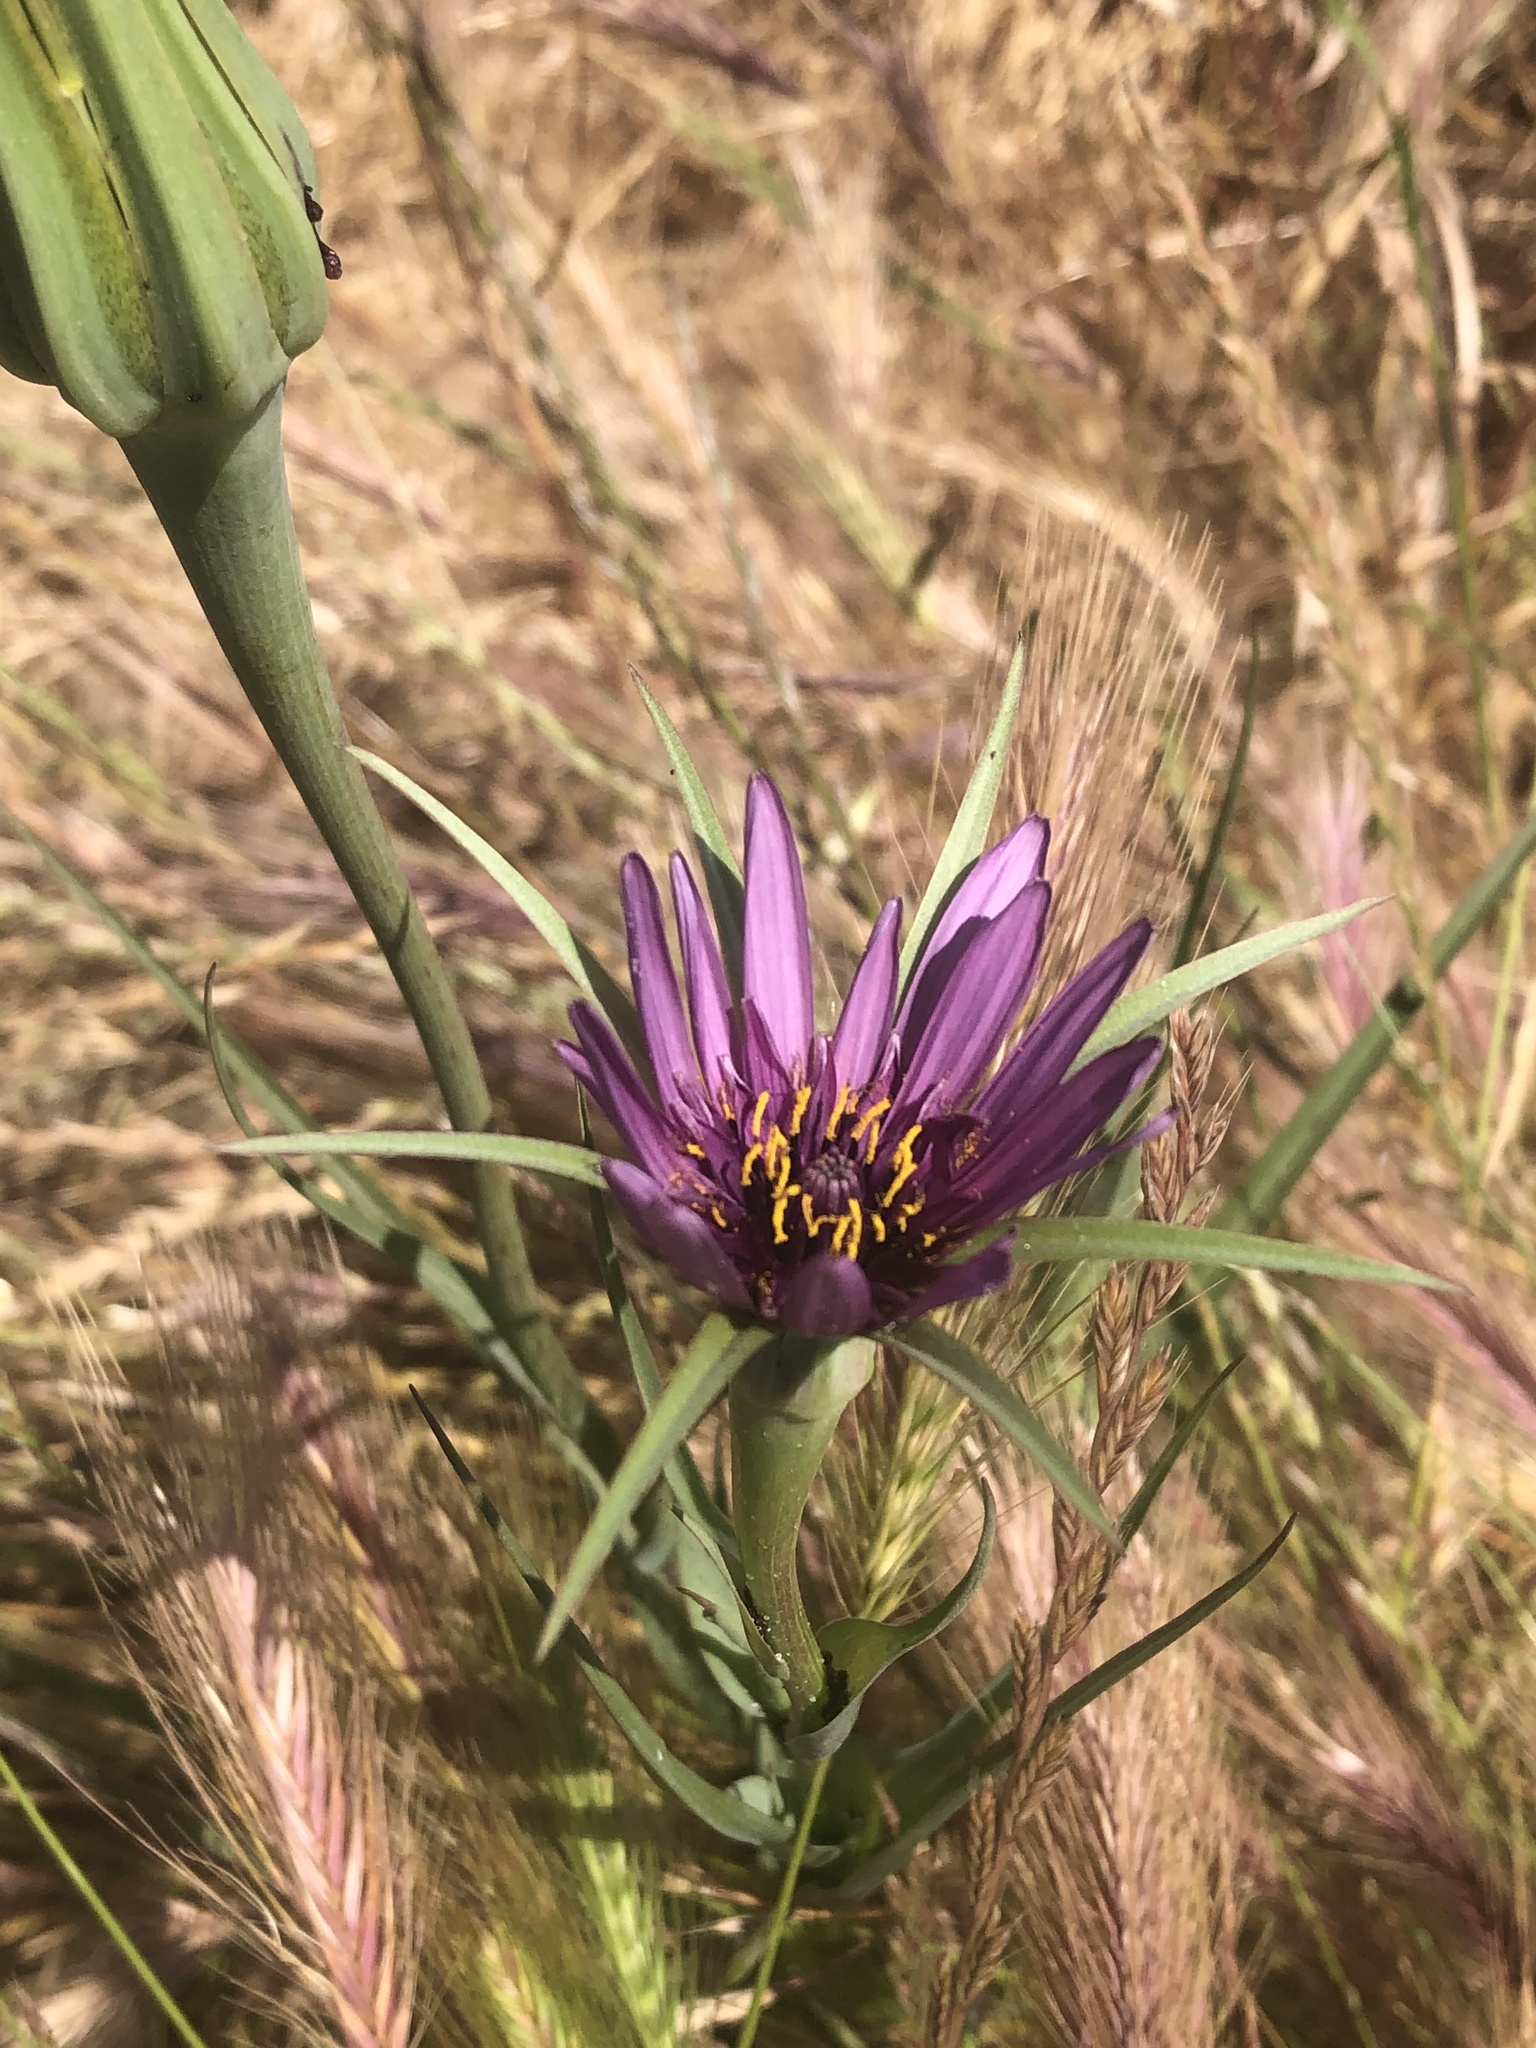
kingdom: Plantae
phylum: Tracheophyta
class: Magnoliopsida
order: Asterales
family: Asteraceae
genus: Tragopogon
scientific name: Tragopogon porrifolius
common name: Salsify
